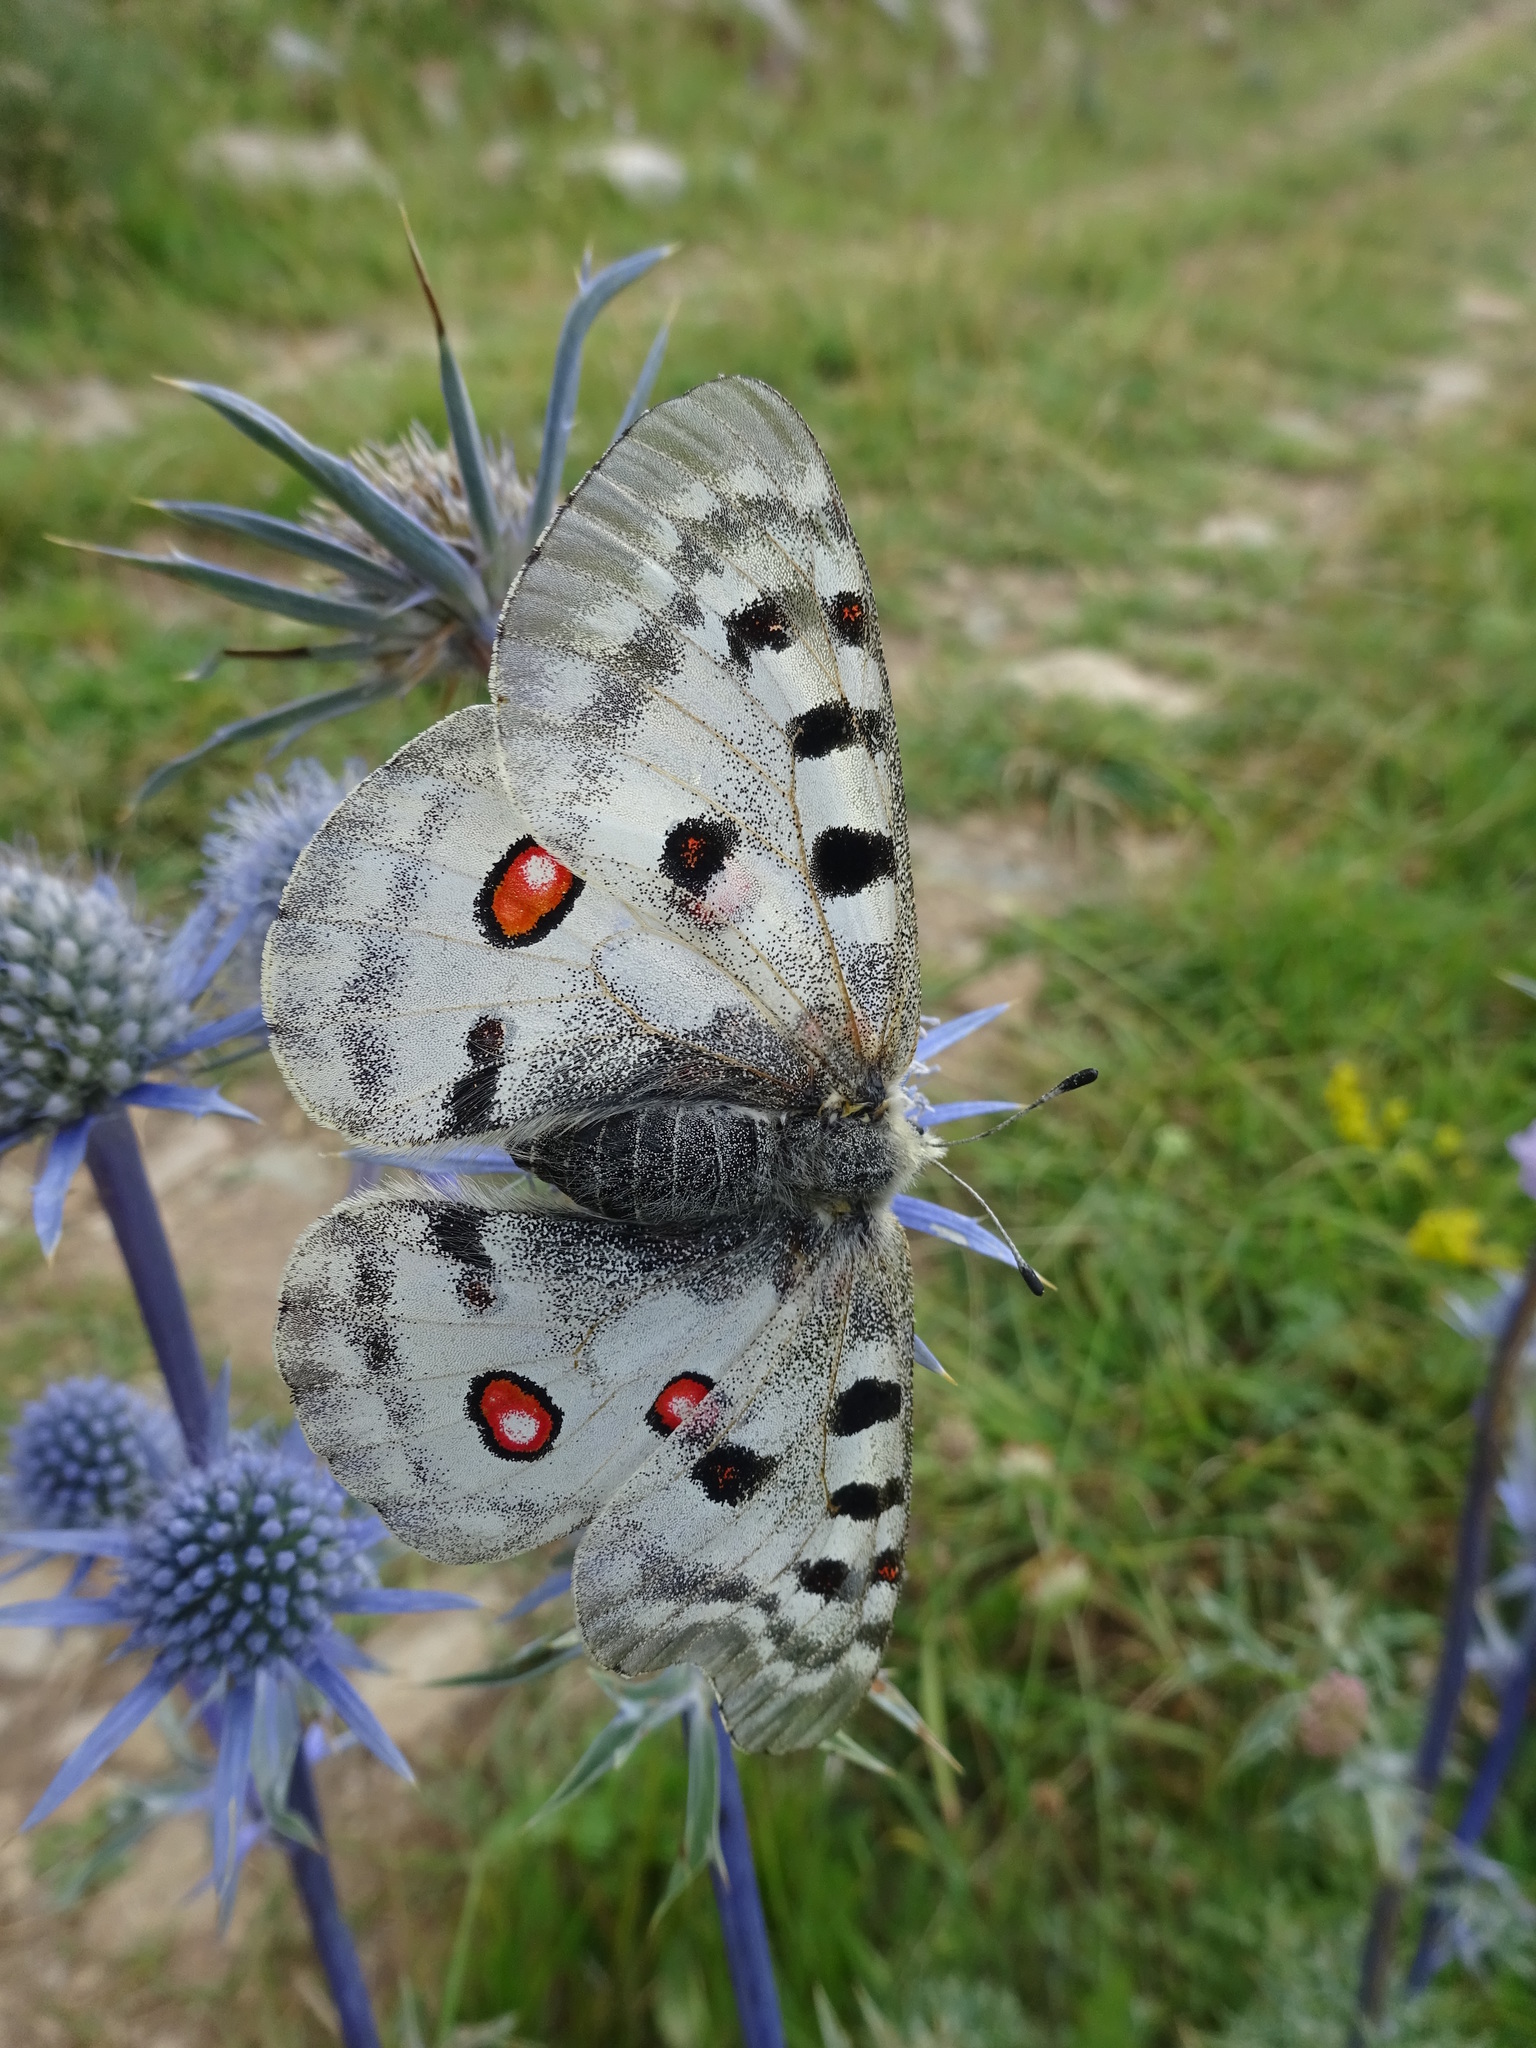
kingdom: Animalia
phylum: Arthropoda
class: Insecta
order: Lepidoptera
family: Papilionidae
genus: Parnassius
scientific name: Parnassius apollo
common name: Apollo
